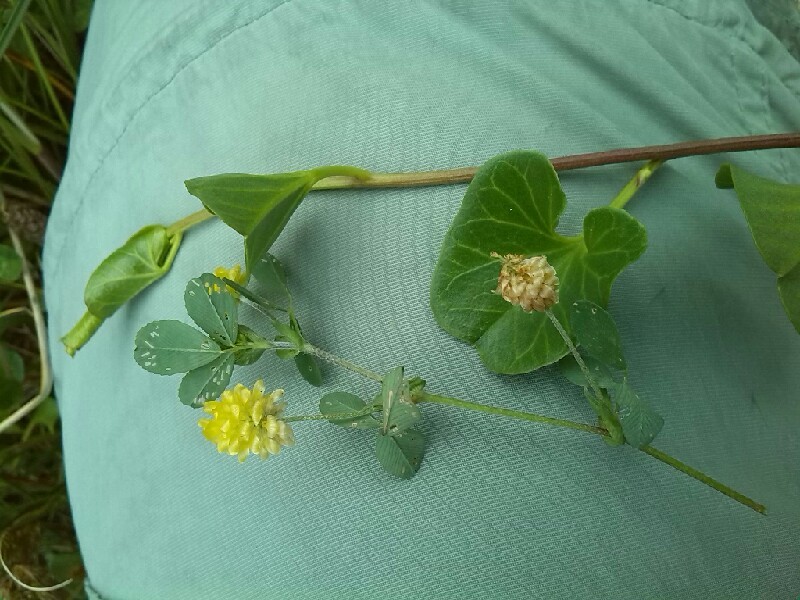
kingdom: Plantae
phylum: Tracheophyta
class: Magnoliopsida
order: Fabales
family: Fabaceae
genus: Trifolium
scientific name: Trifolium campestre
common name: Field clover
